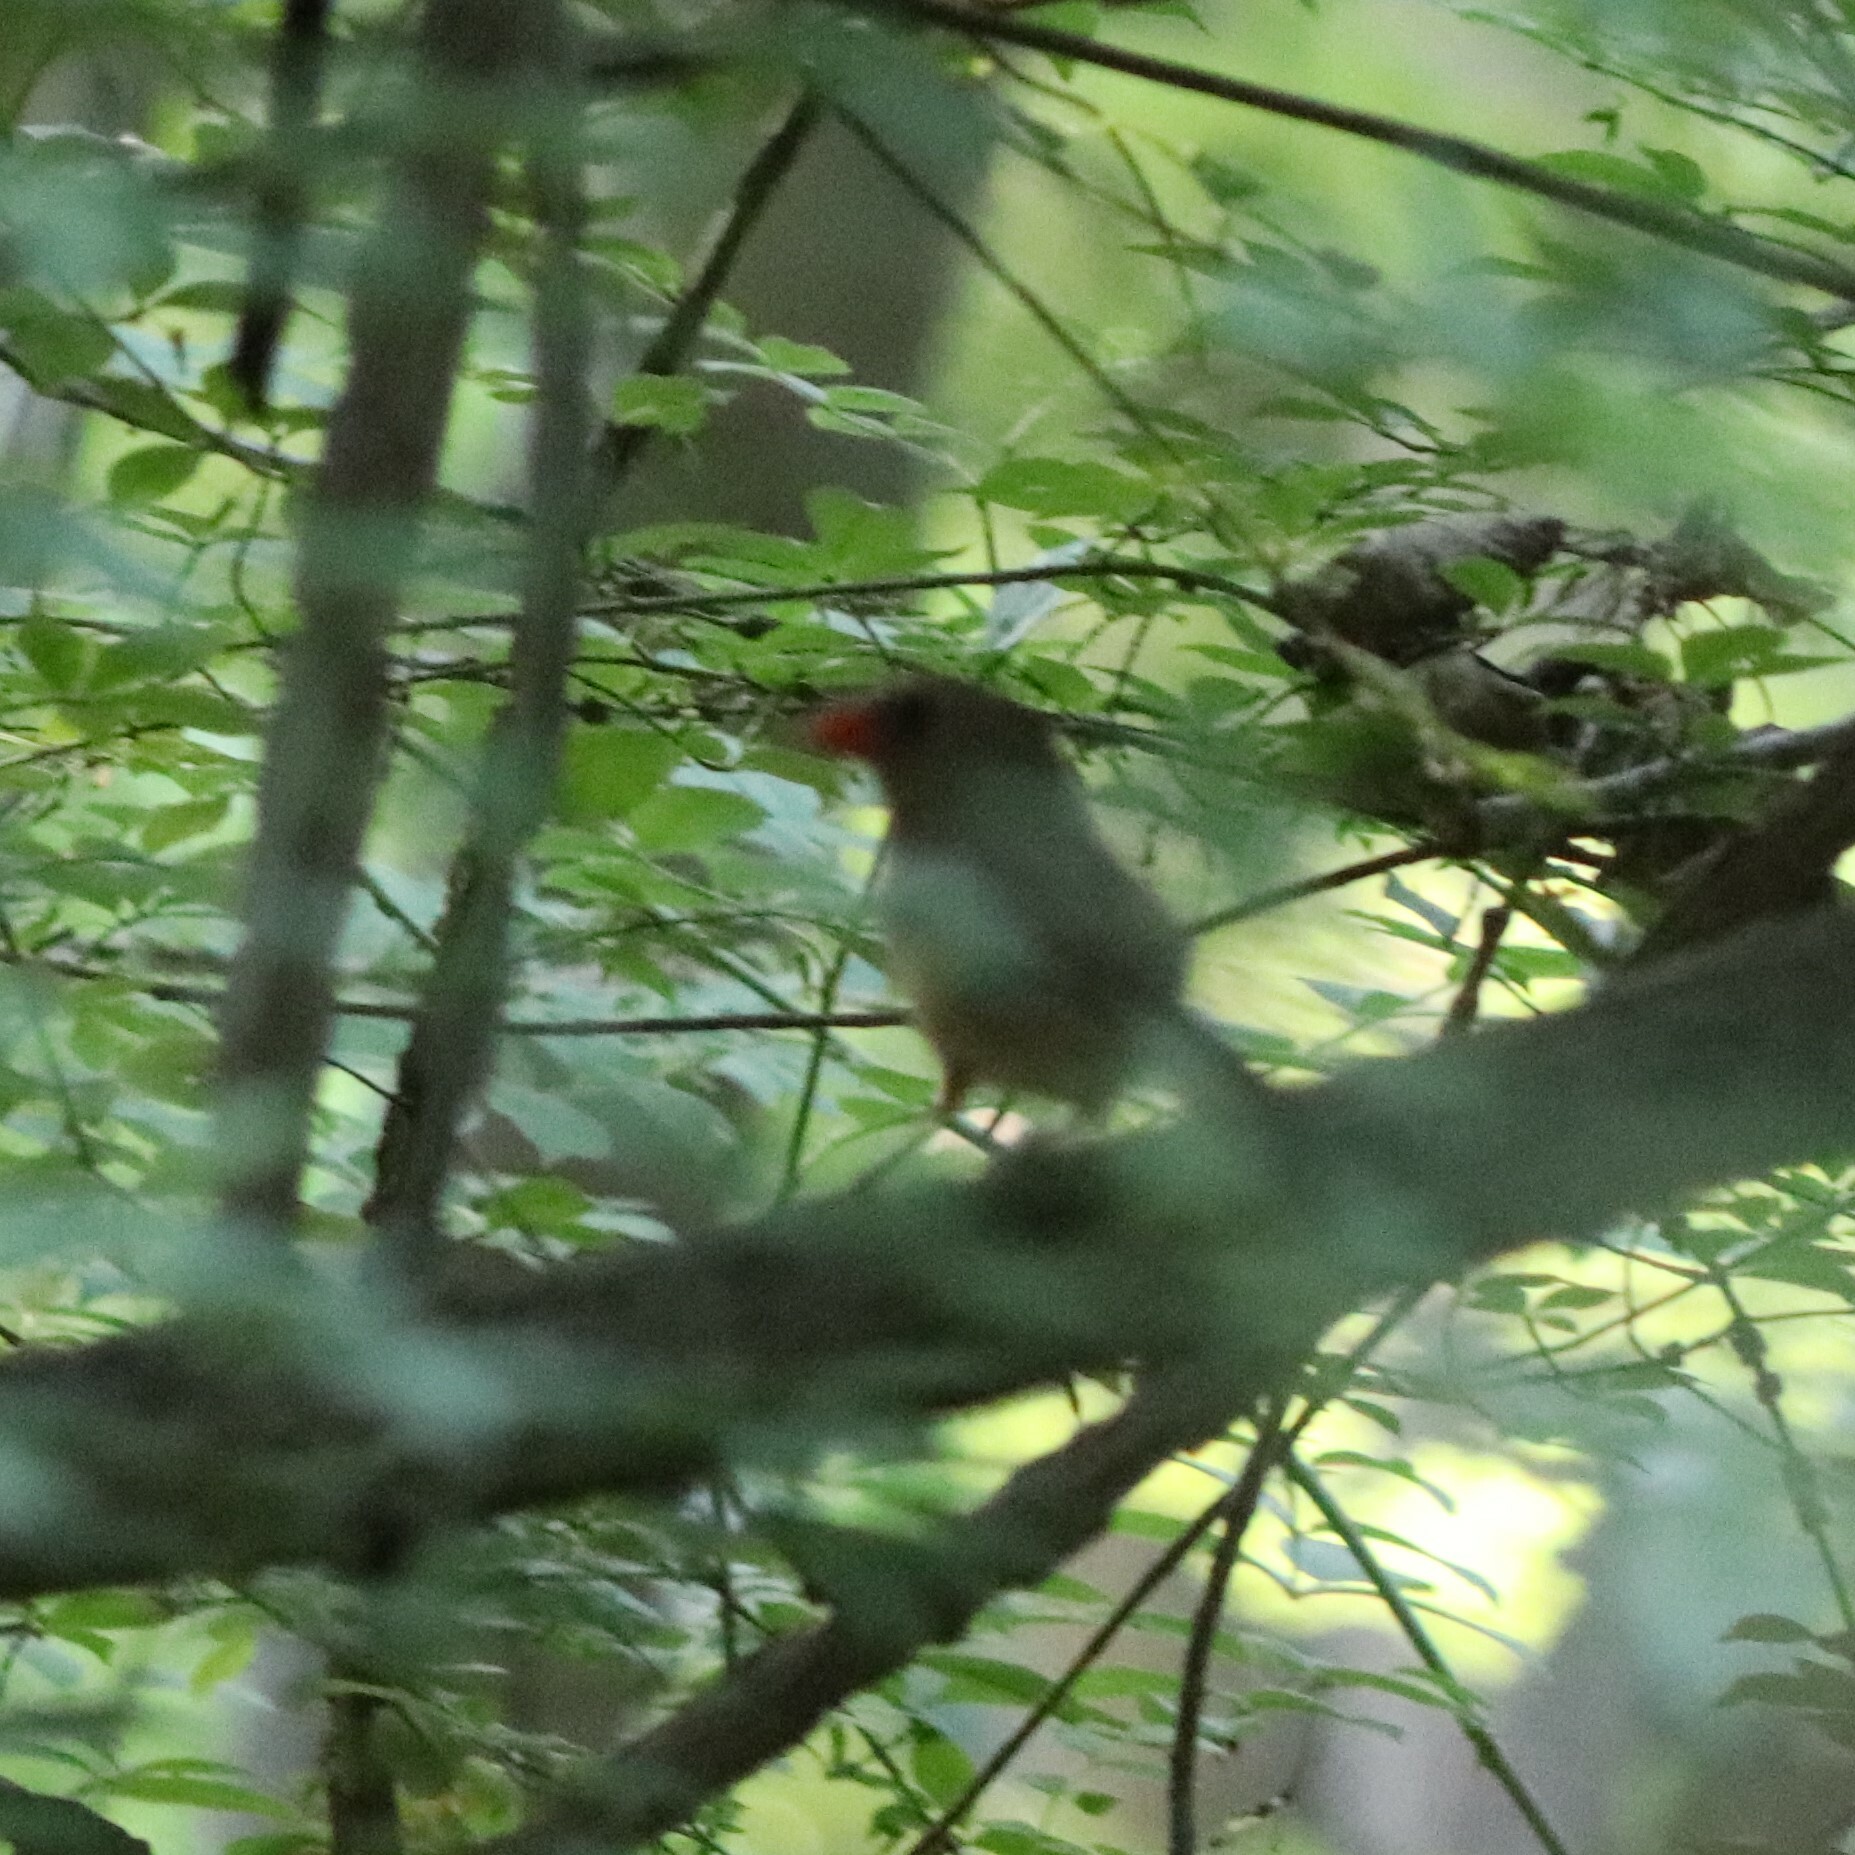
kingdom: Animalia
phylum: Chordata
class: Aves
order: Passeriformes
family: Cardinalidae
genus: Cardinalis
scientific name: Cardinalis cardinalis
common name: Northern cardinal
